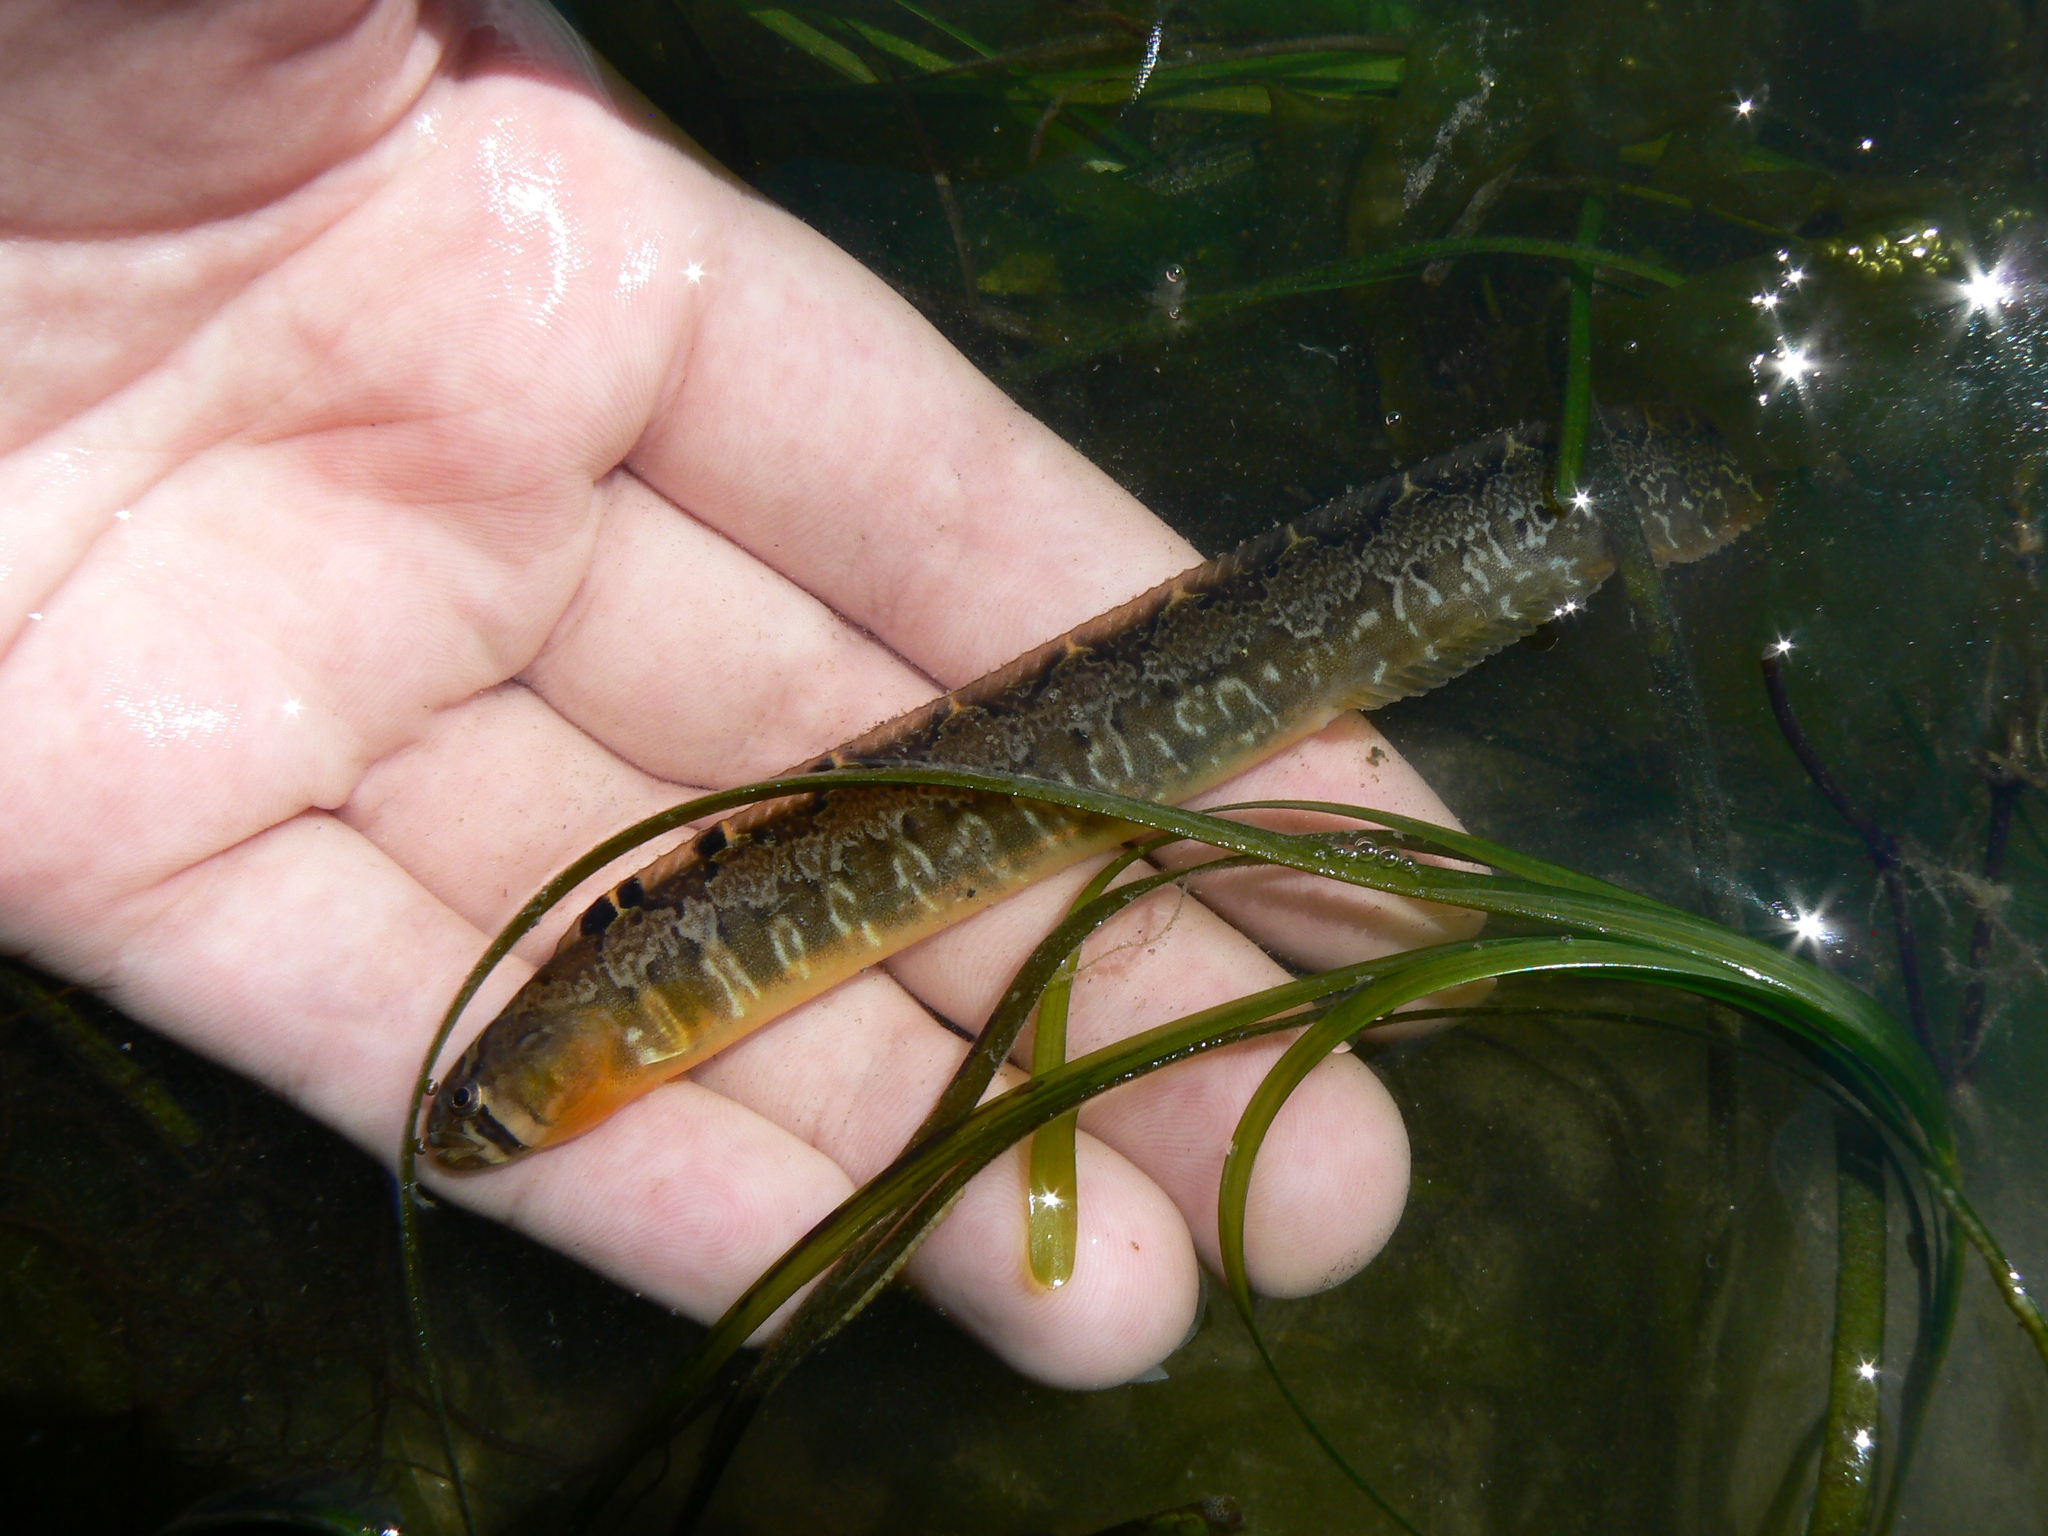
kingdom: Animalia
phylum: Chordata
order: Perciformes
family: Pholidae
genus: Pholis
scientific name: Pholis ornata
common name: Saddleback gunnel
